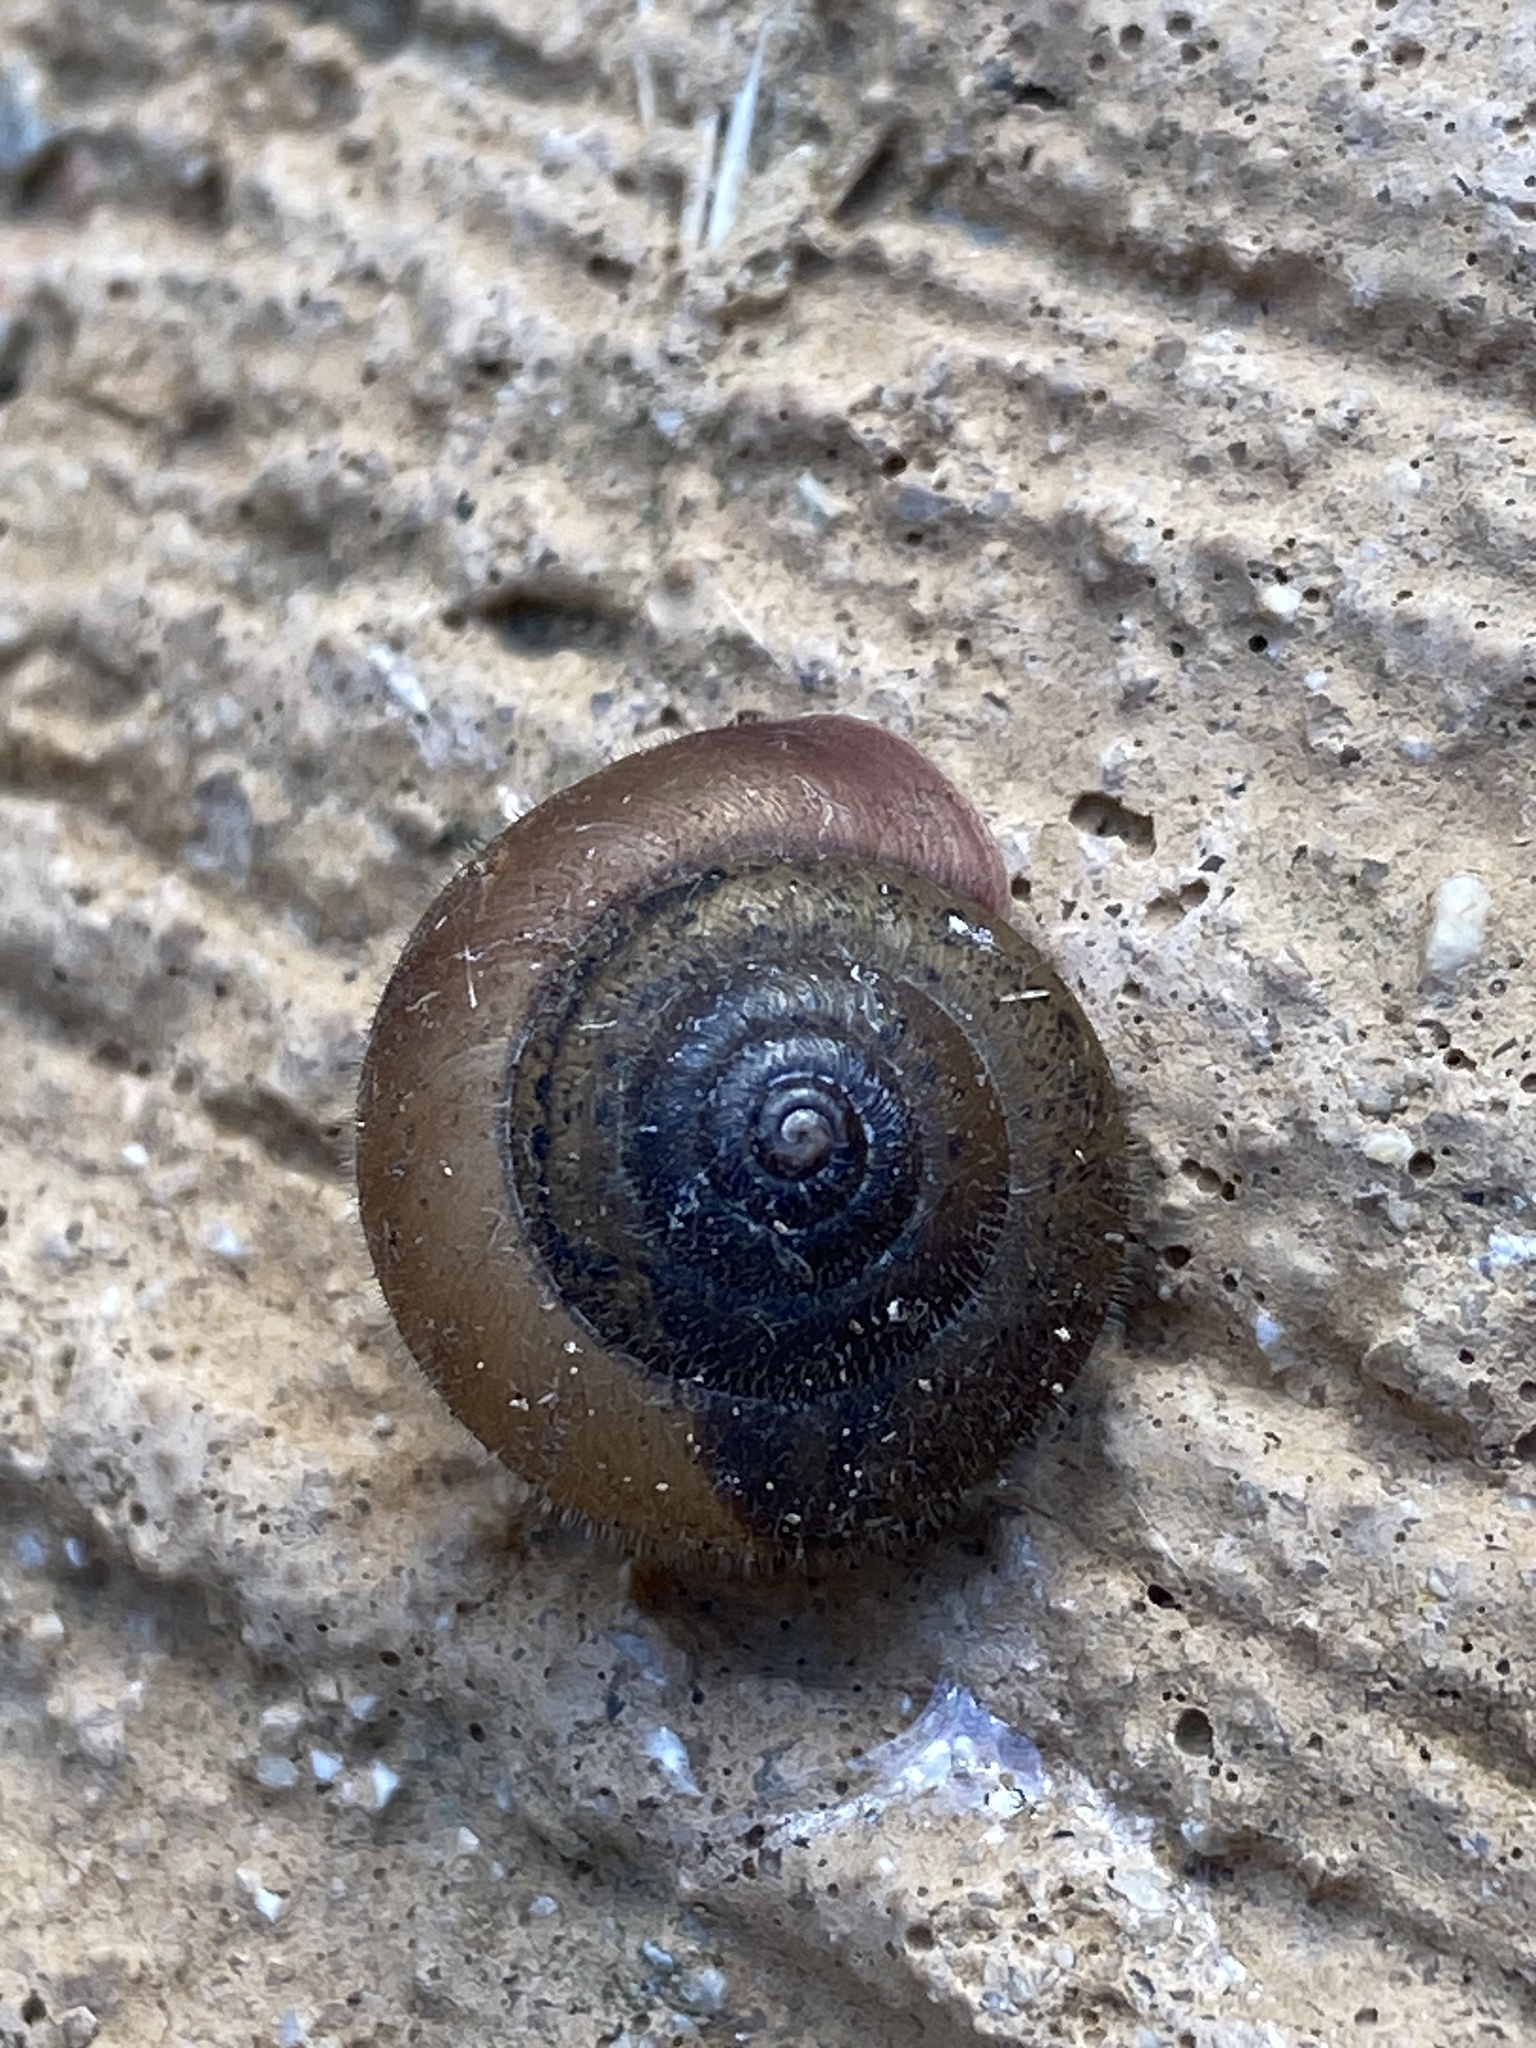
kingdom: Animalia
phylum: Mollusca
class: Gastropoda
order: Stylommatophora
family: Hygromiidae
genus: Ganula
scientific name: Ganula lanuginosa
